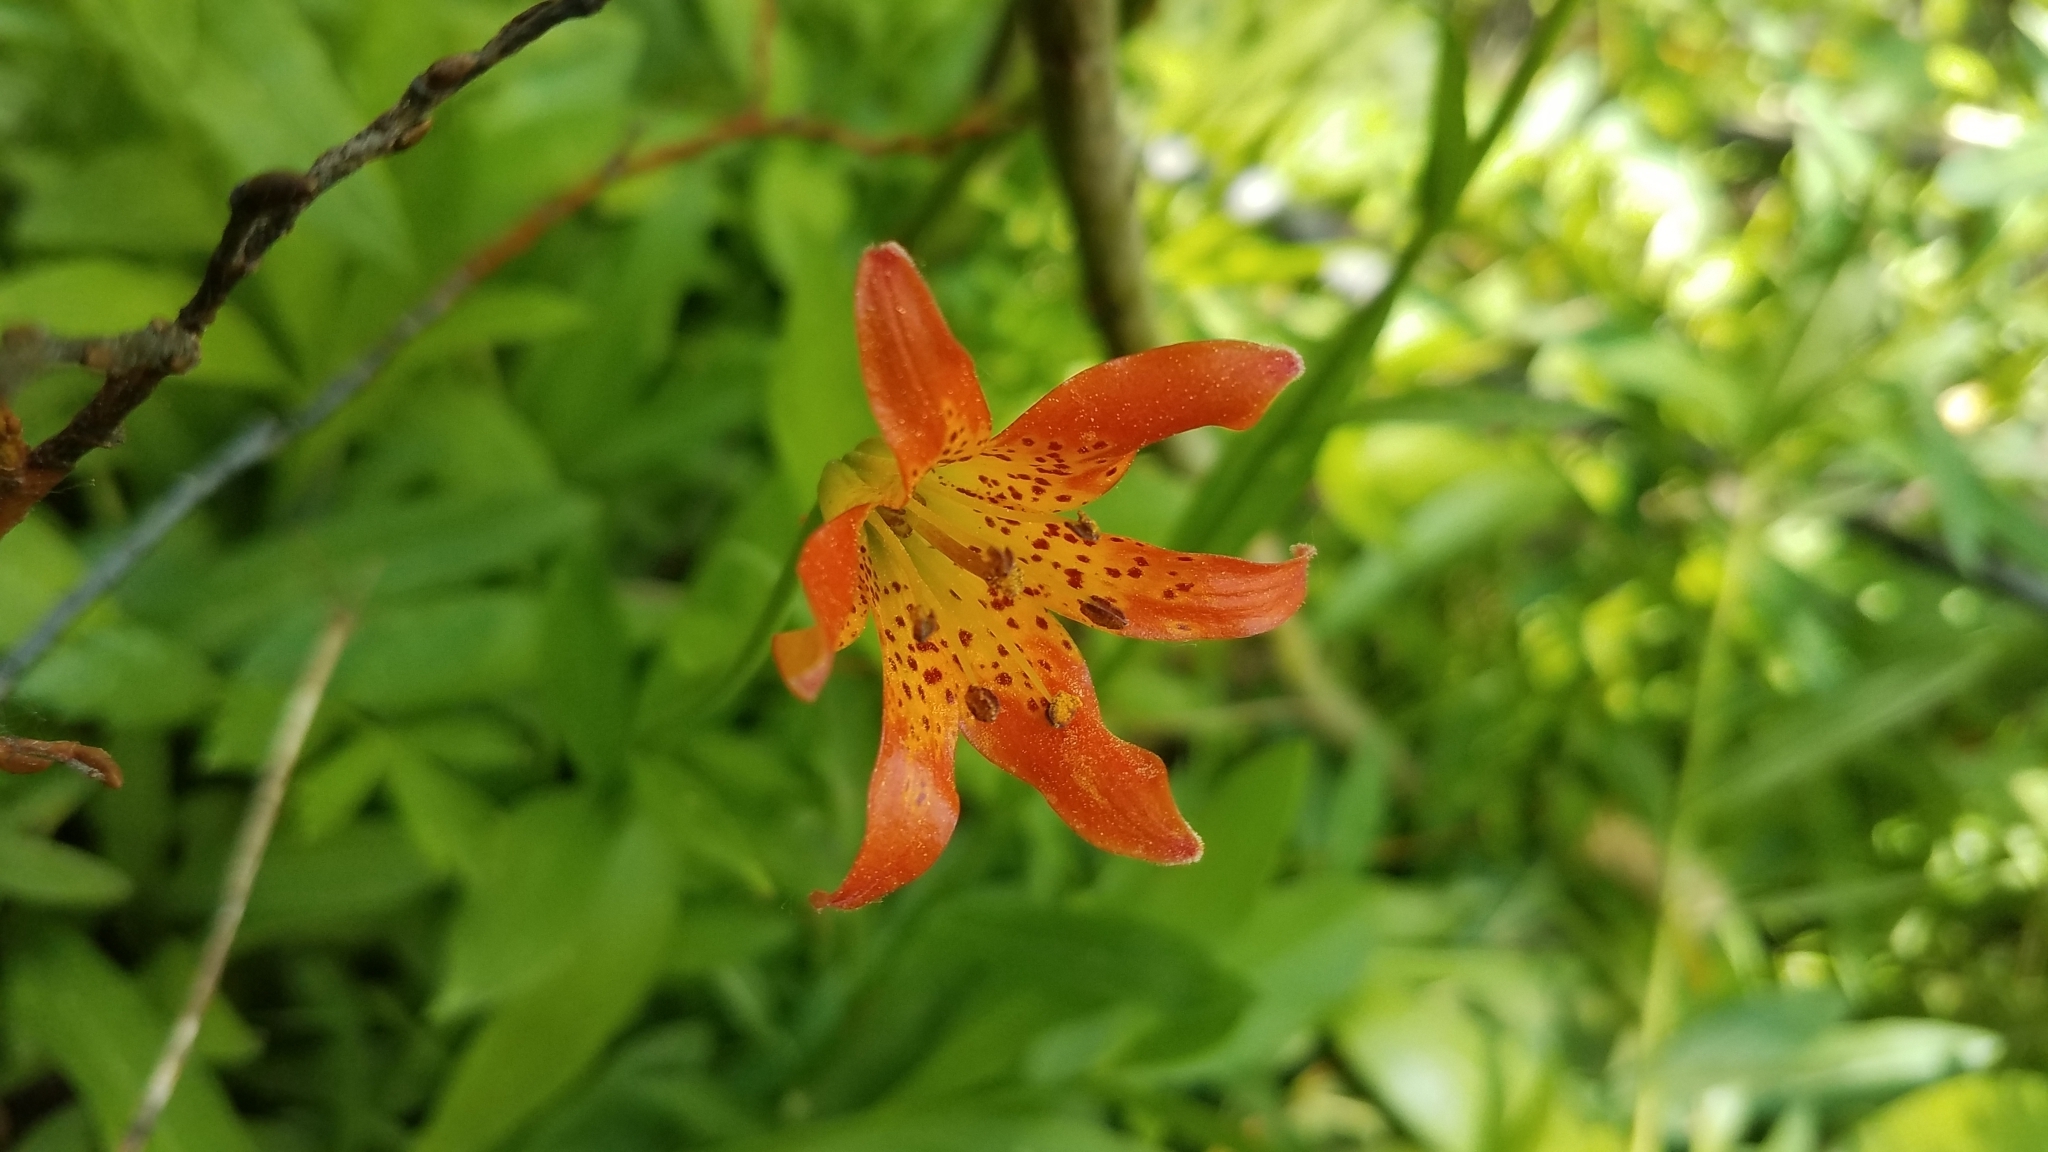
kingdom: Plantae
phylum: Tracheophyta
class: Liliopsida
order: Liliales
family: Liliaceae
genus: Lilium
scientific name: Lilium parvum
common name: Alpine lily
